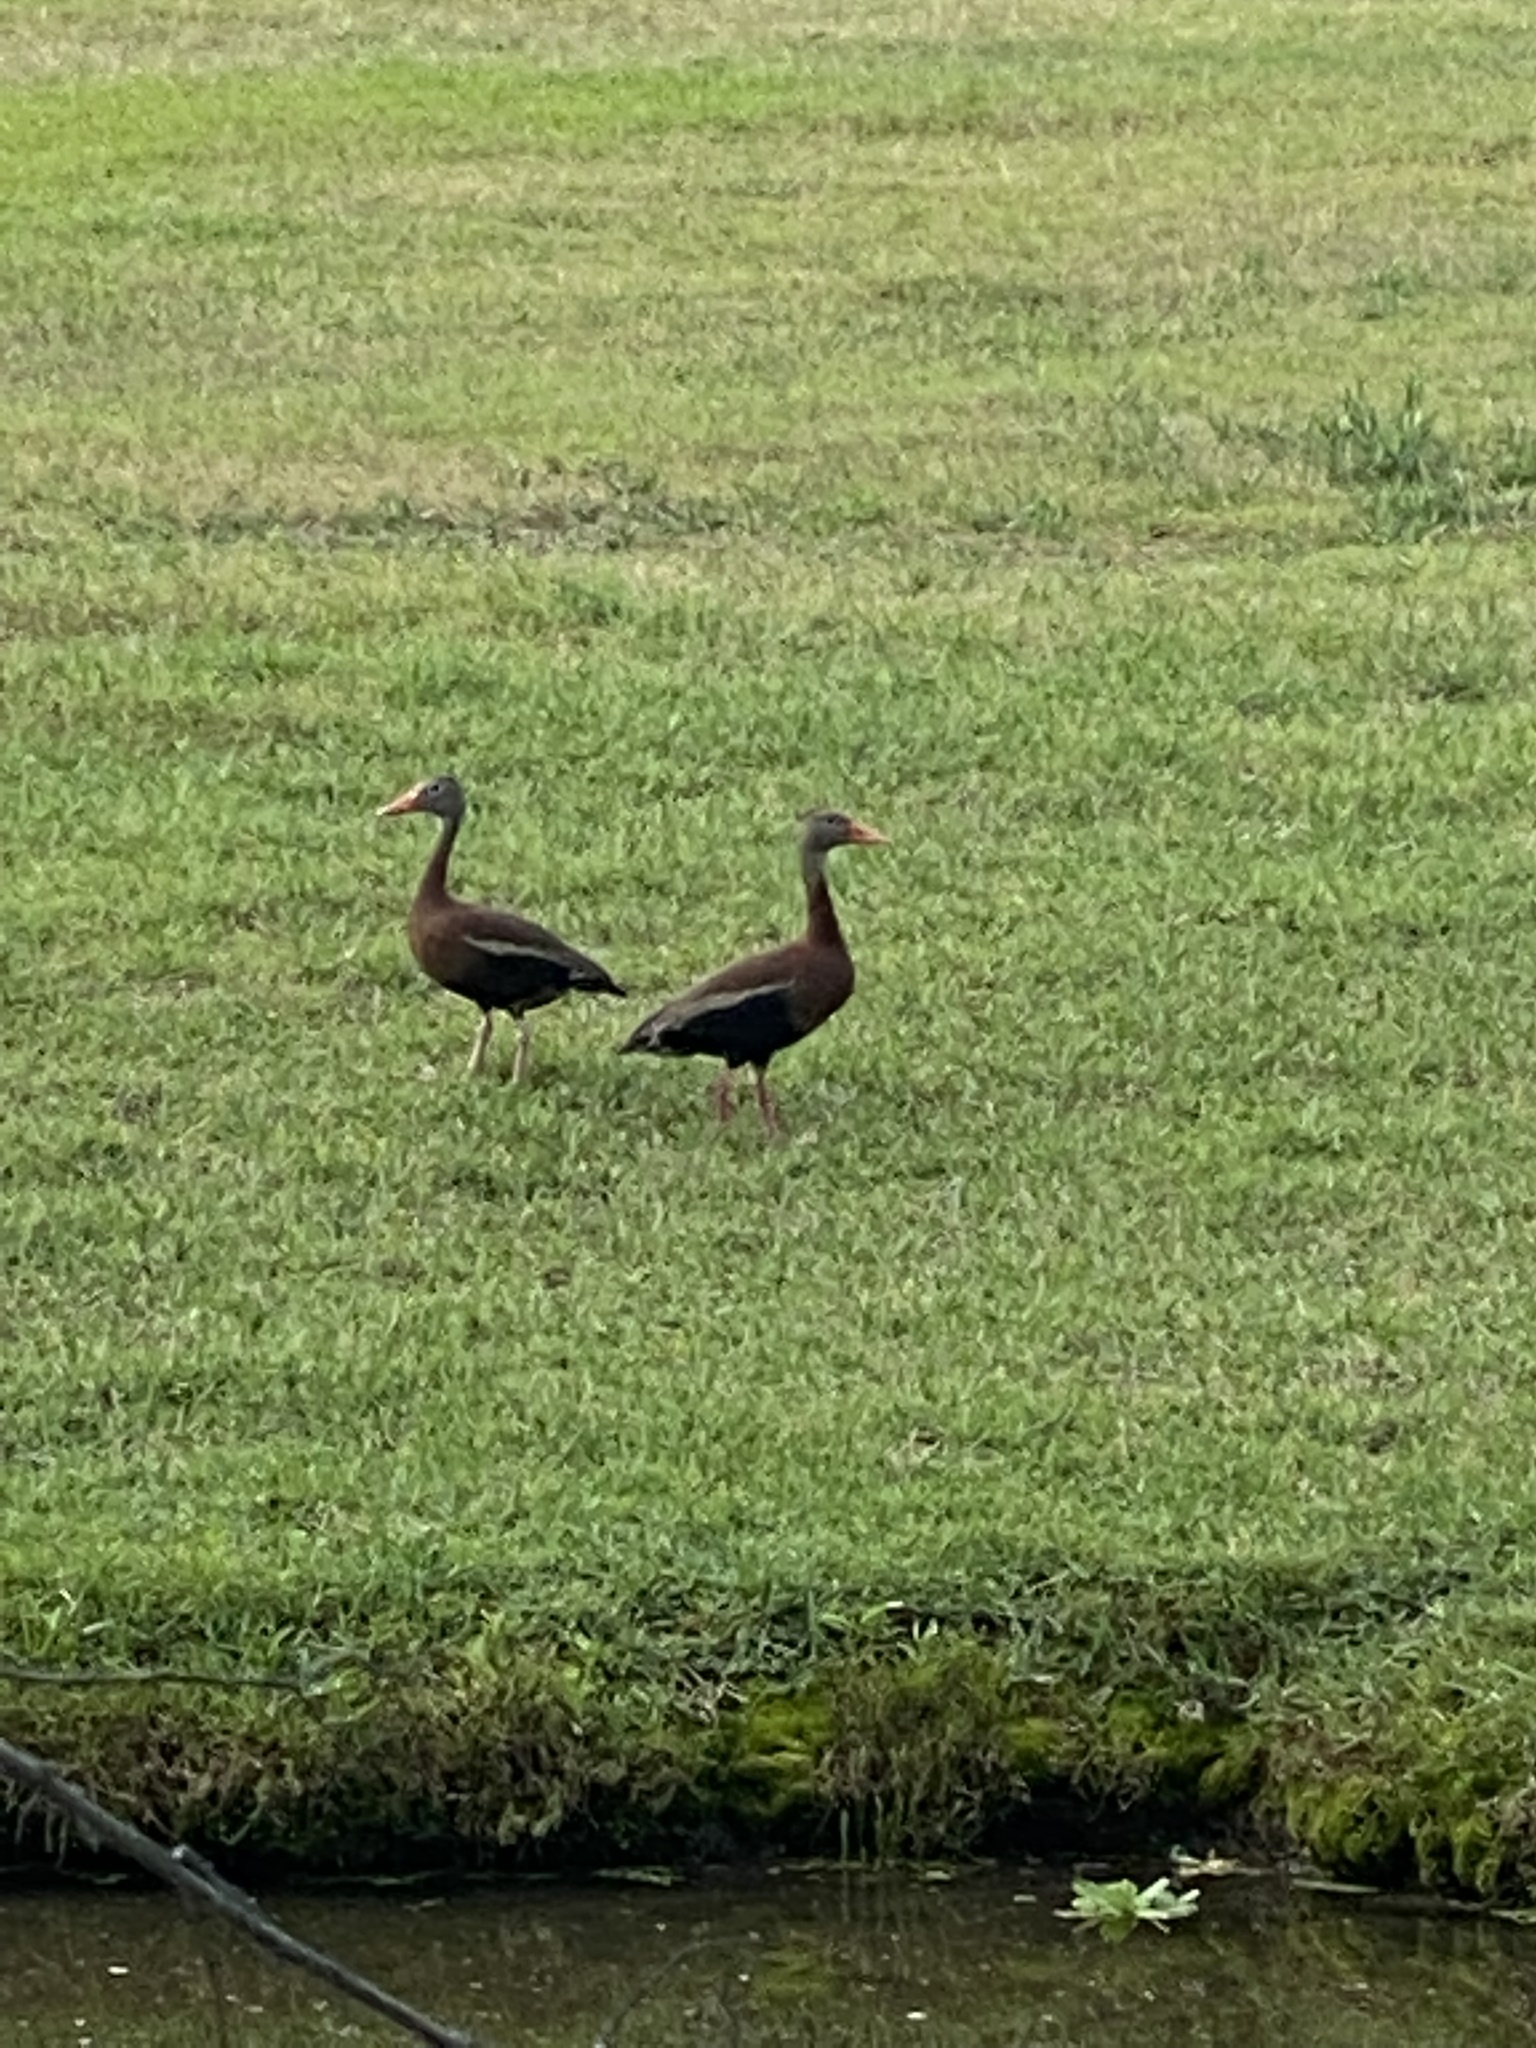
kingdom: Animalia
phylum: Chordata
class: Aves
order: Anseriformes
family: Anatidae
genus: Dendrocygna
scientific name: Dendrocygna autumnalis
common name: Black-bellied whistling duck
